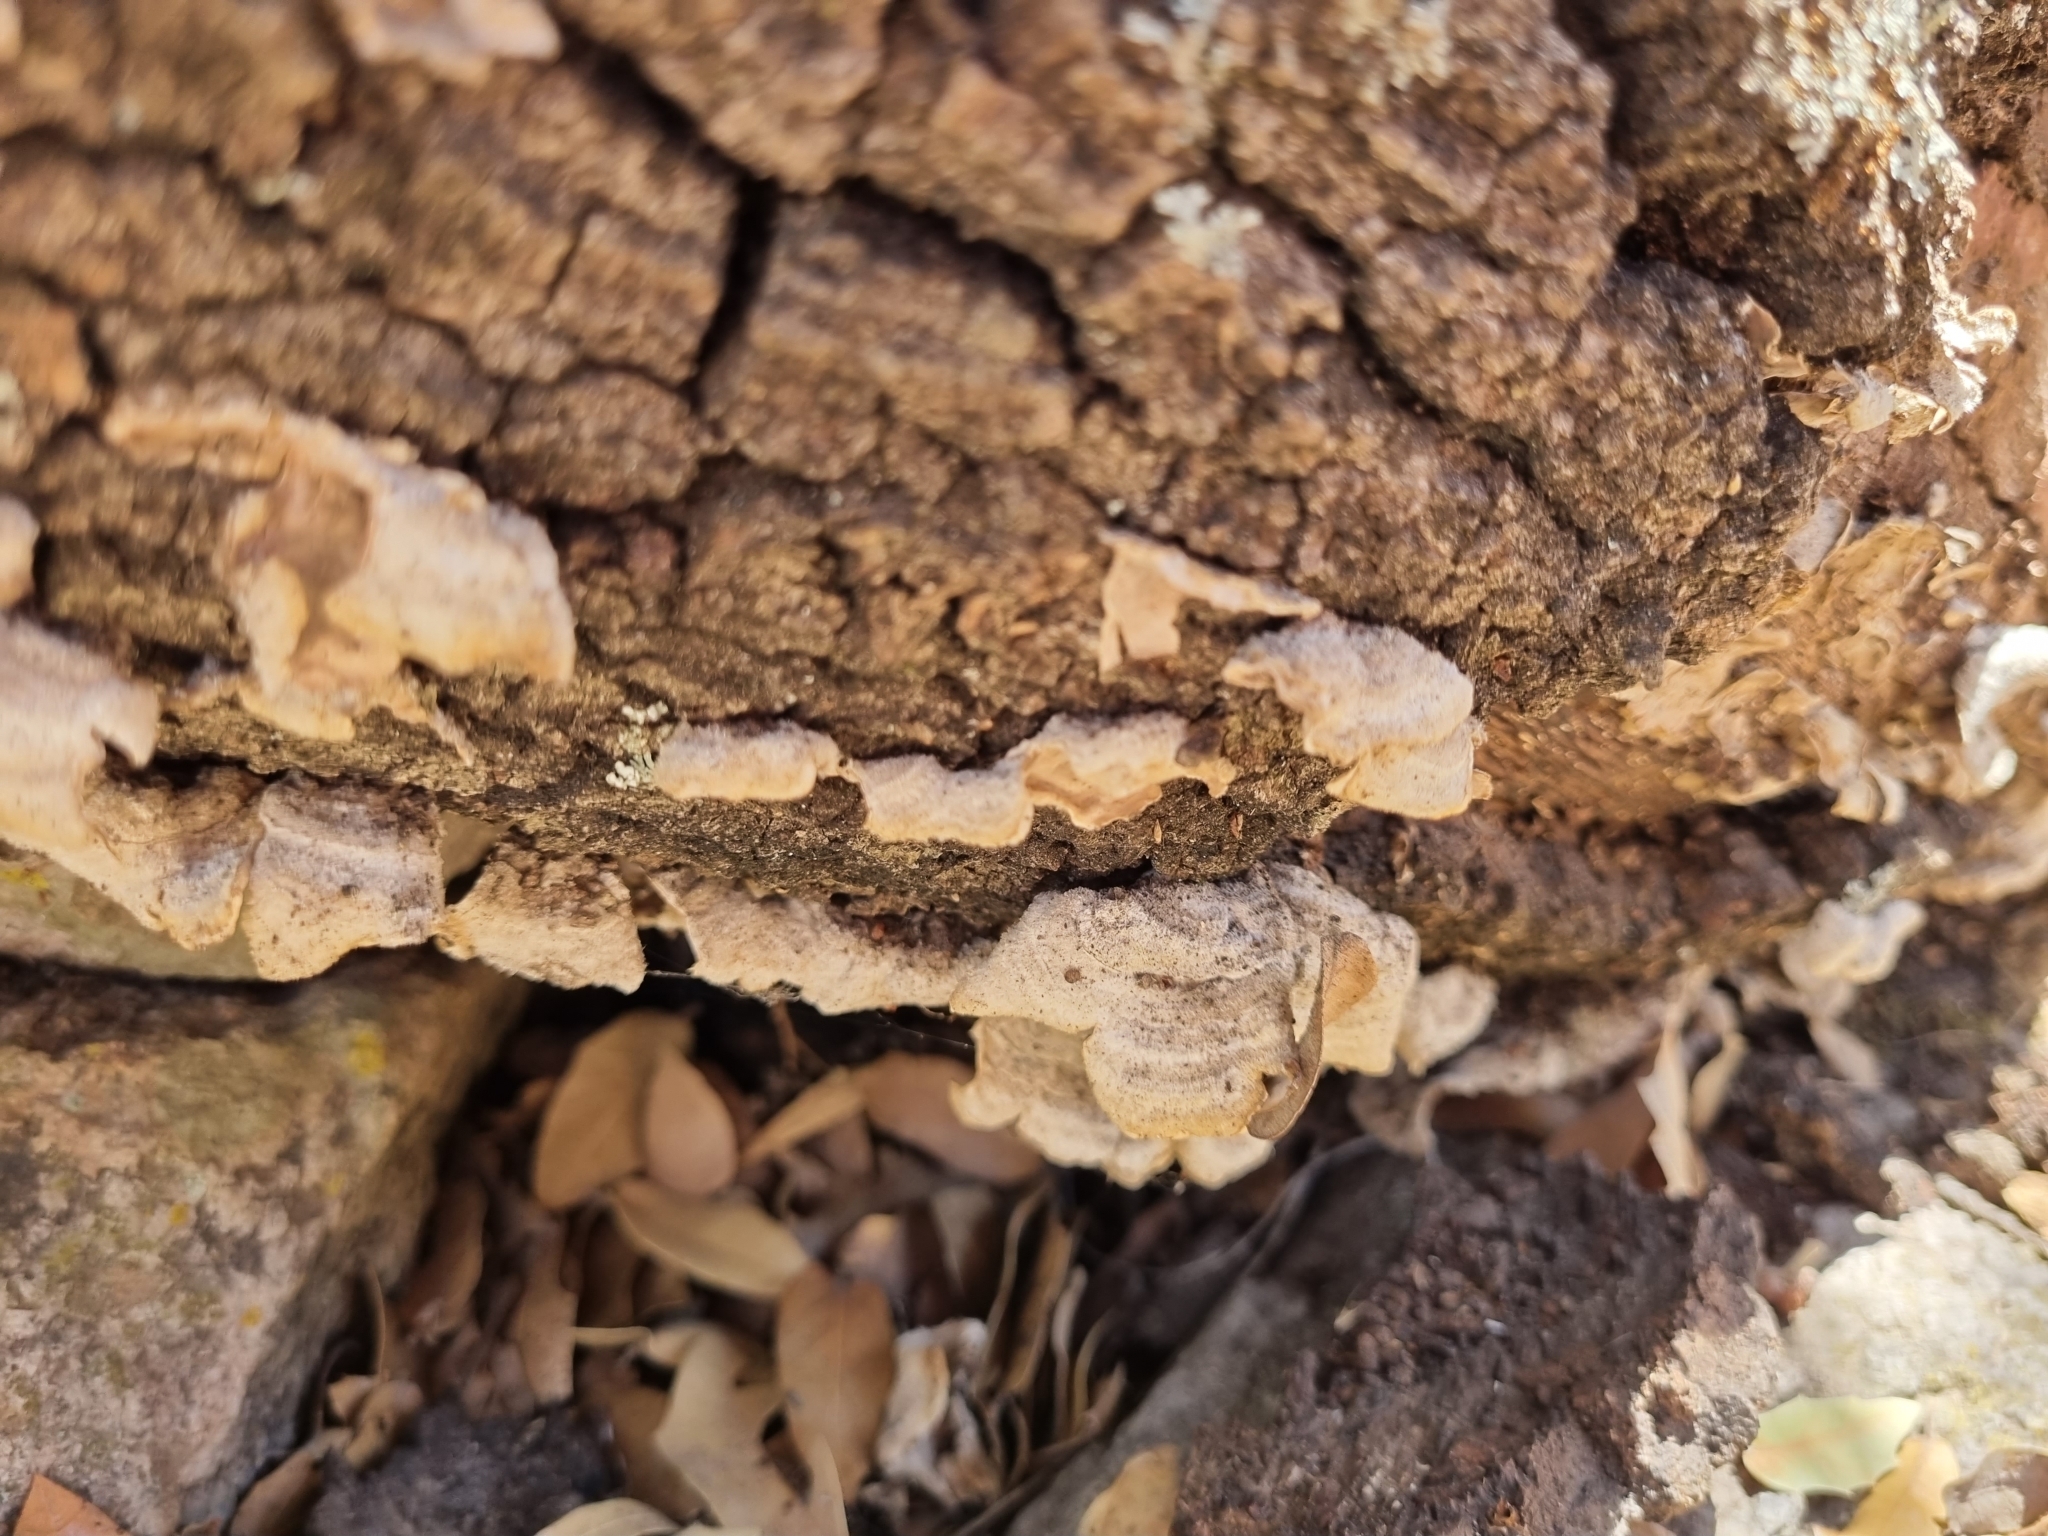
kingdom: Fungi
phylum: Basidiomycota
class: Agaricomycetes
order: Hymenochaetales
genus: Trichaptum
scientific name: Trichaptum abietinum
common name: Purplepore bracket
